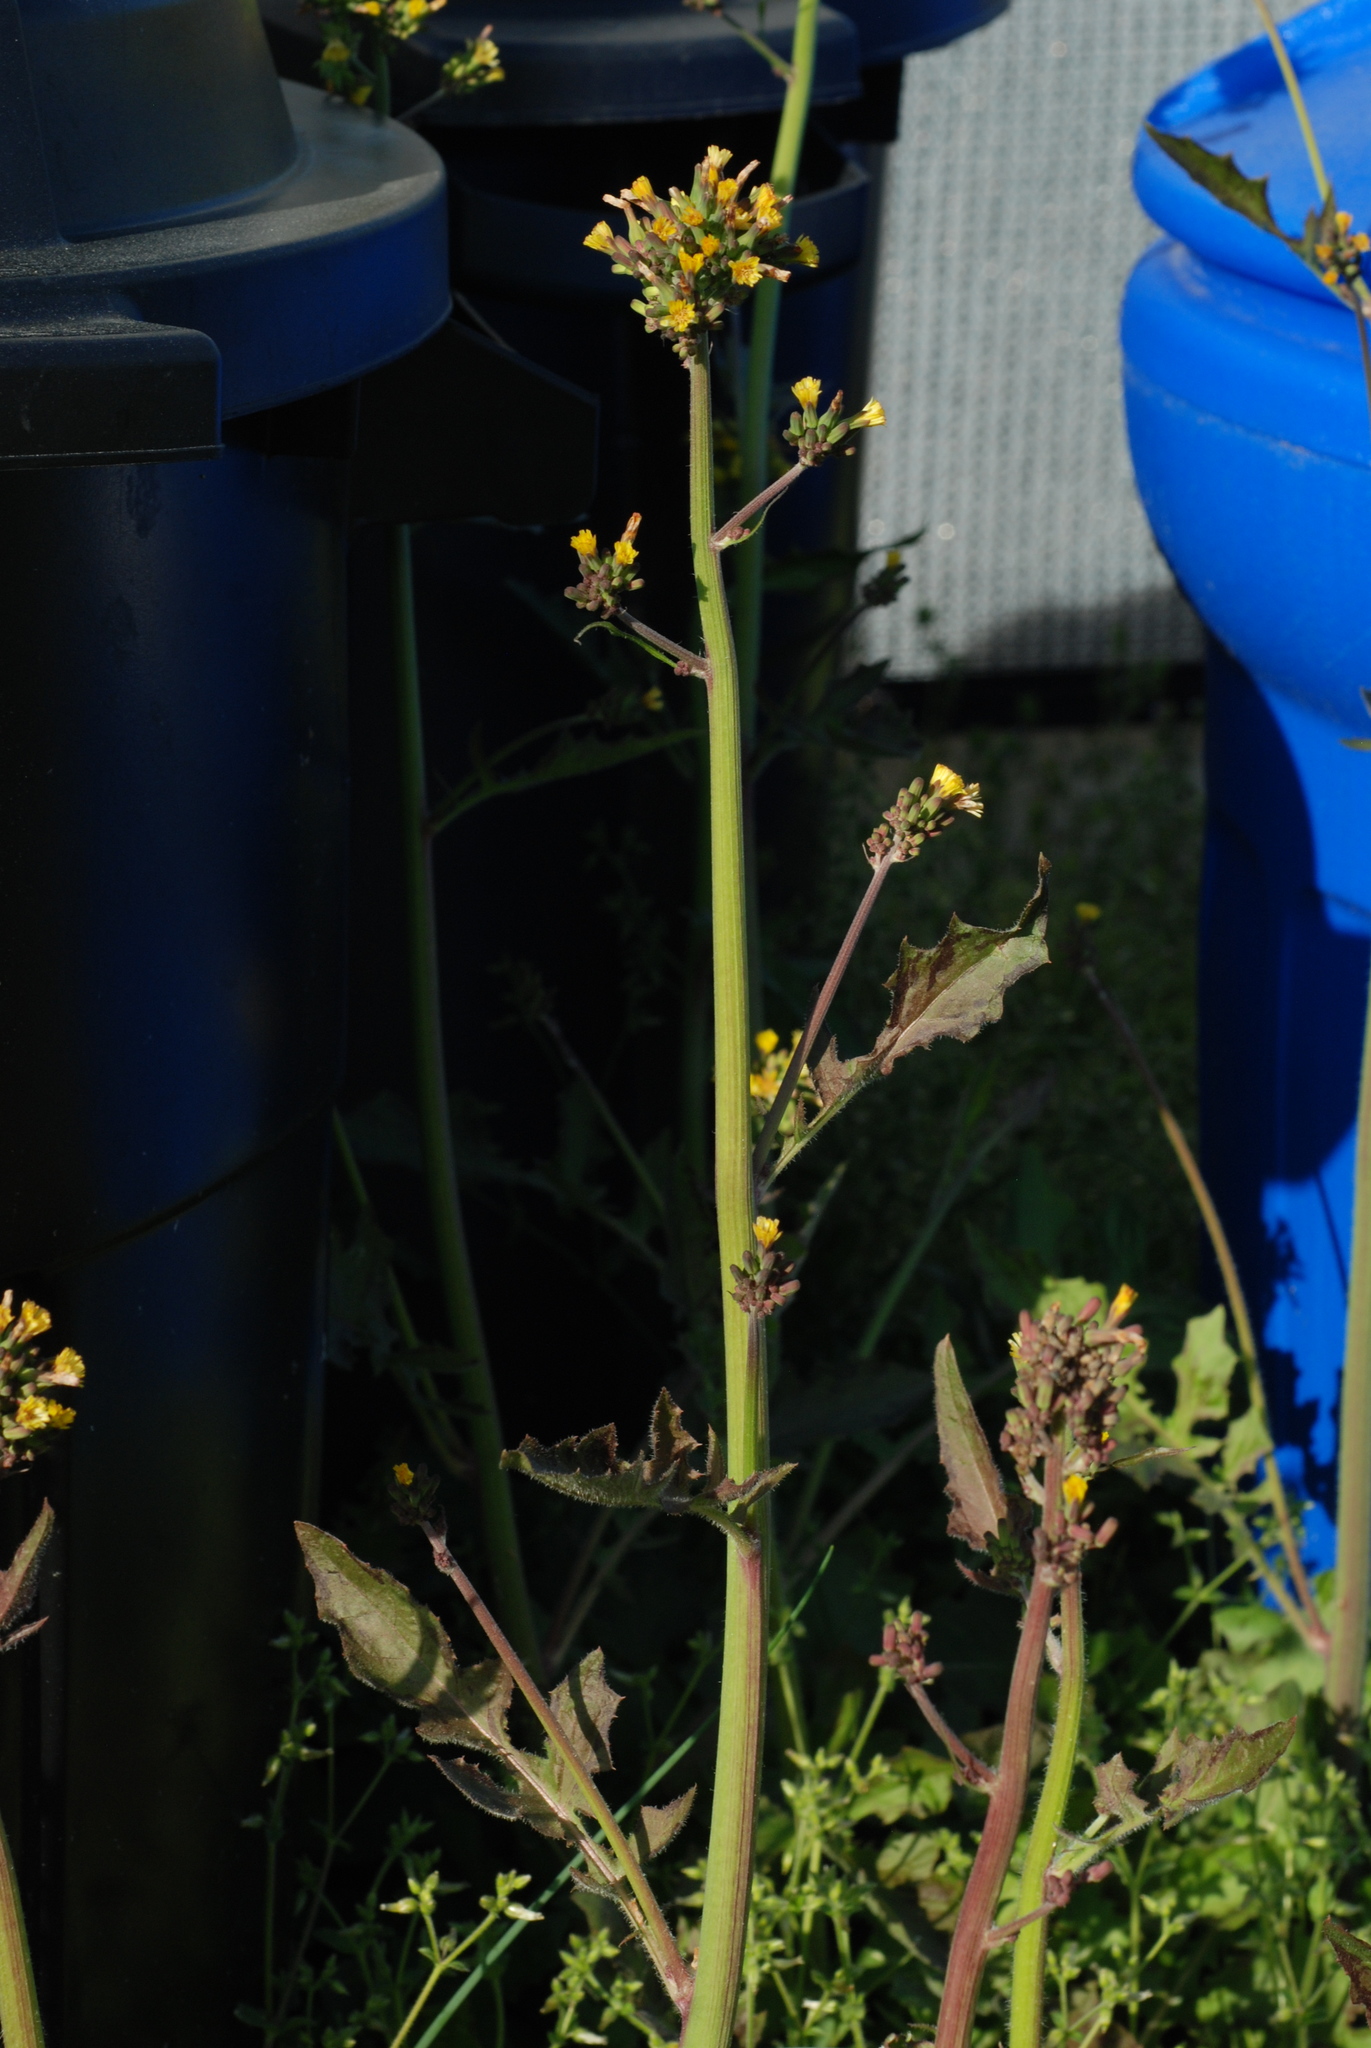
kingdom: Plantae
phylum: Tracheophyta
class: Magnoliopsida
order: Asterales
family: Asteraceae
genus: Youngia
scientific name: Youngia japonica
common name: Oriental false hawksbeard
